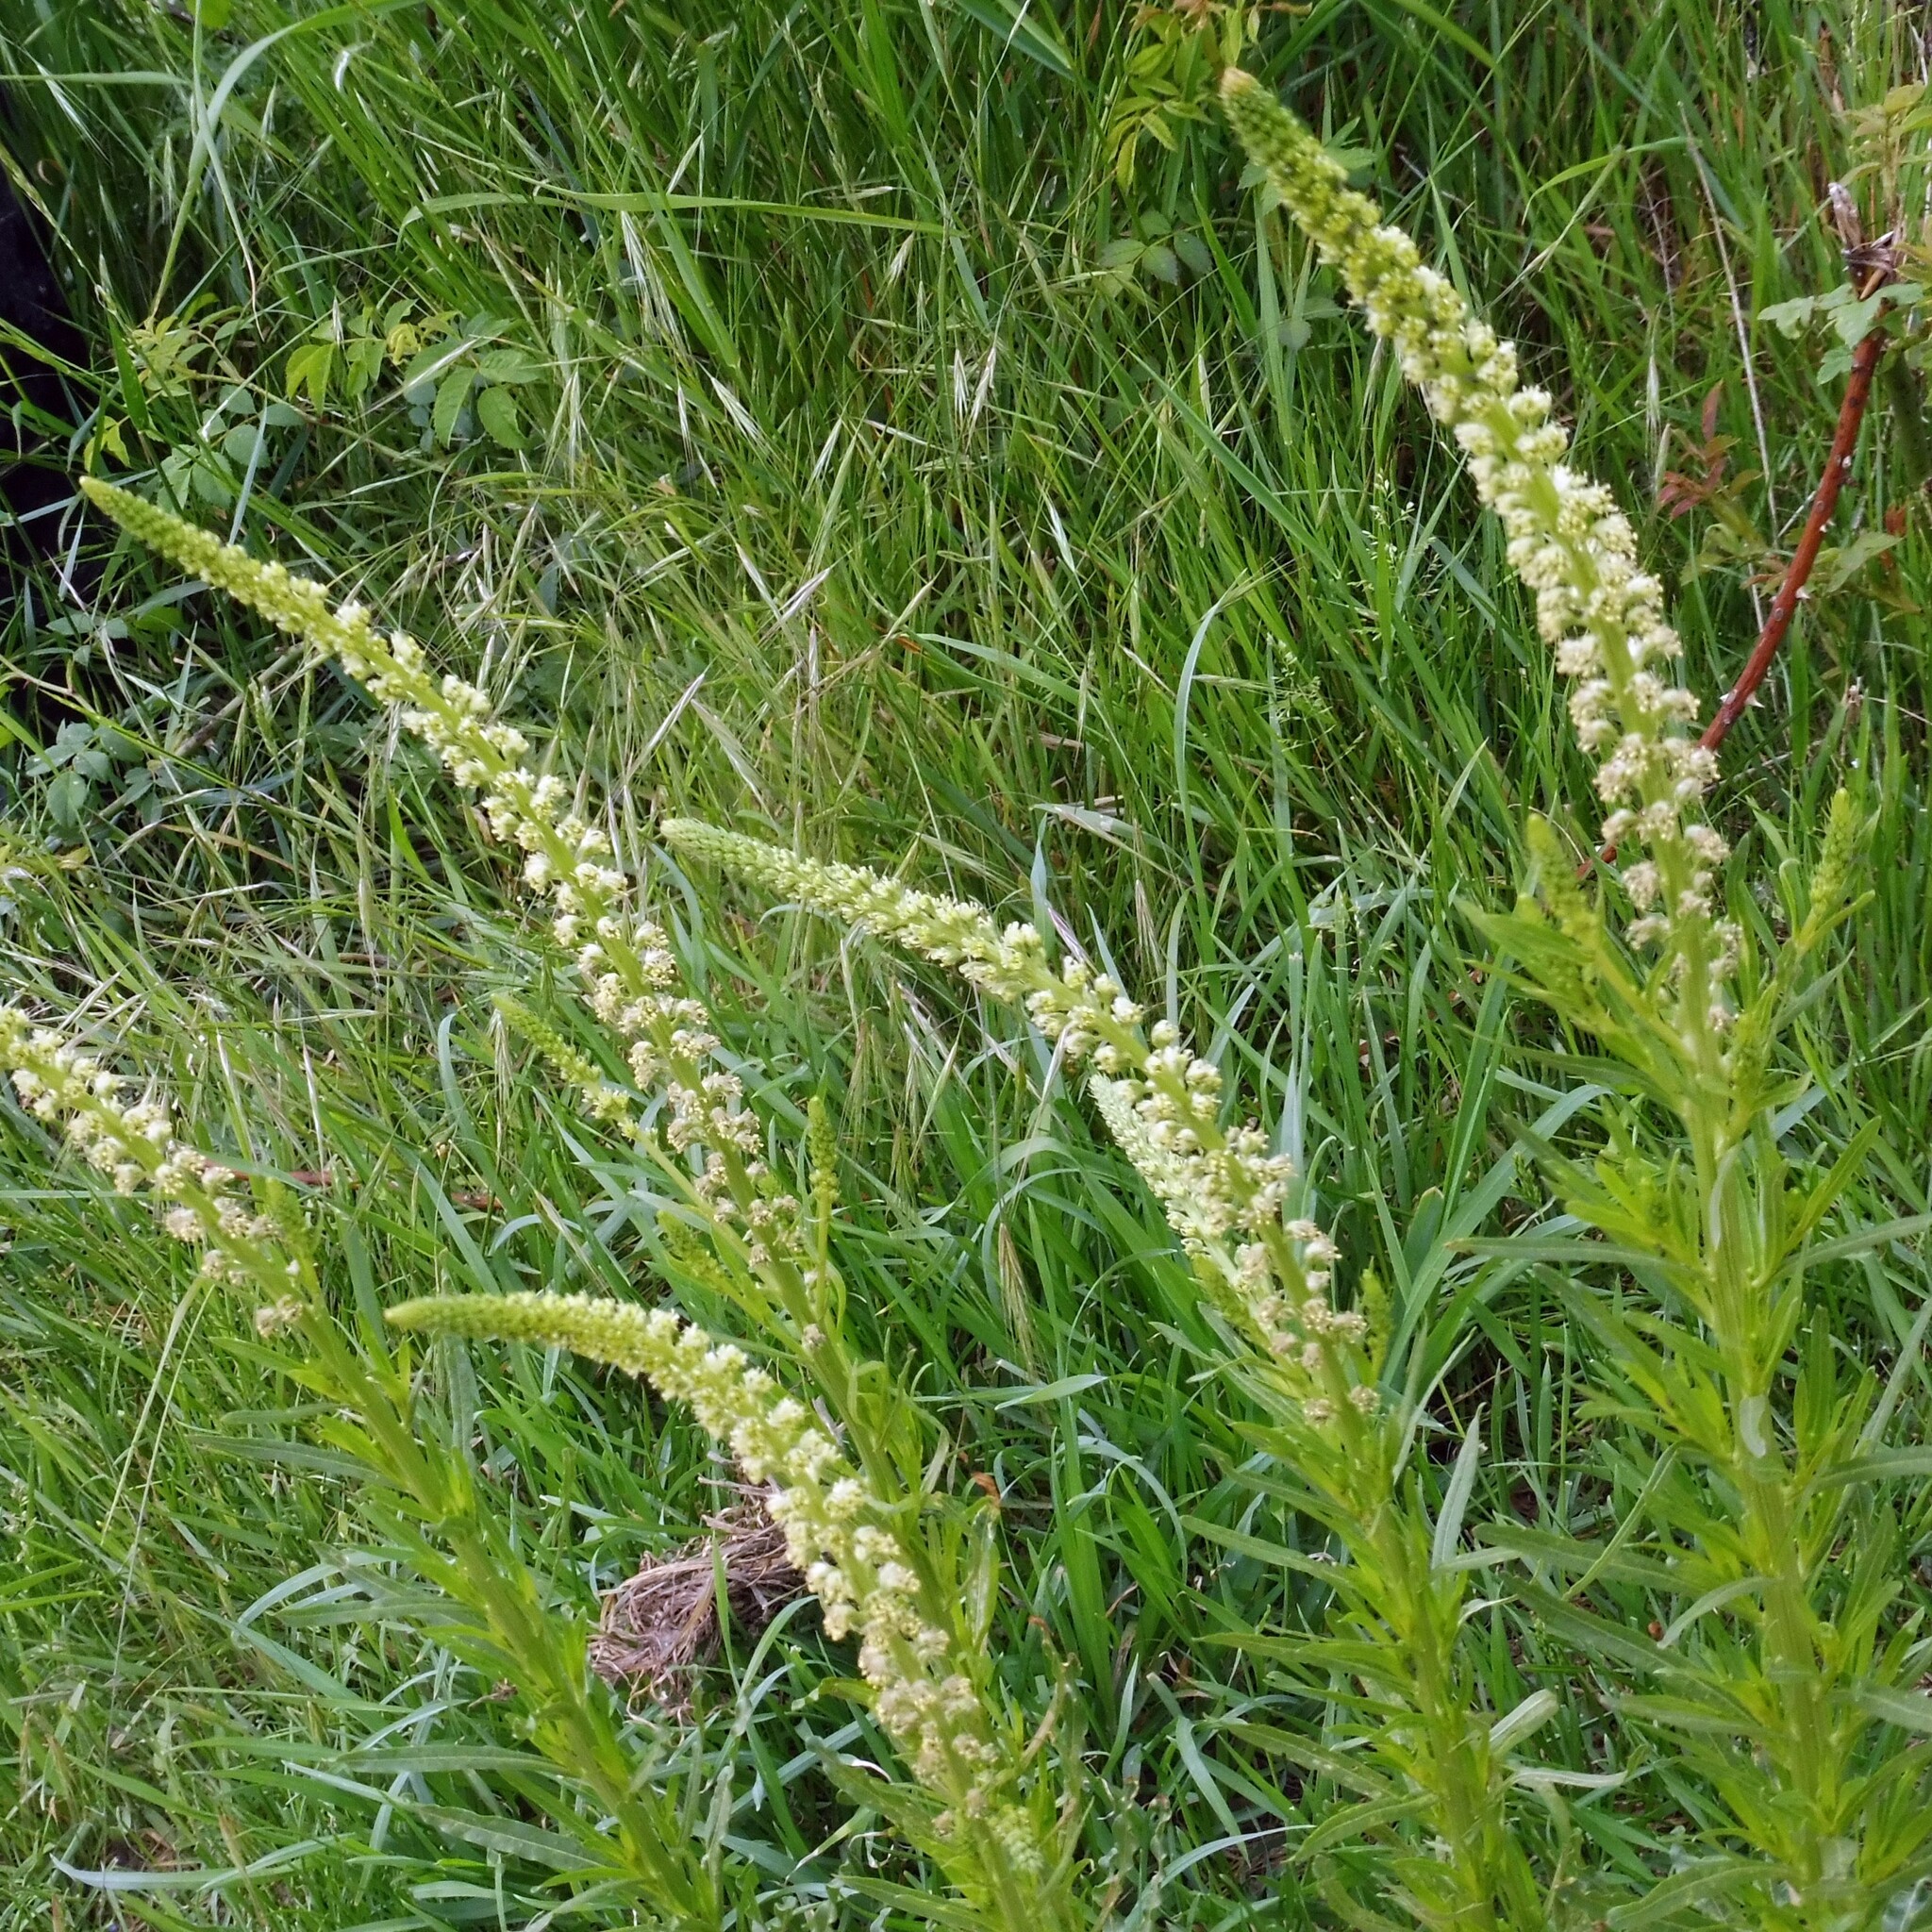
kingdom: Plantae
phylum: Tracheophyta
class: Magnoliopsida
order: Brassicales
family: Resedaceae
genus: Reseda
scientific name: Reseda luteola
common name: Weld
